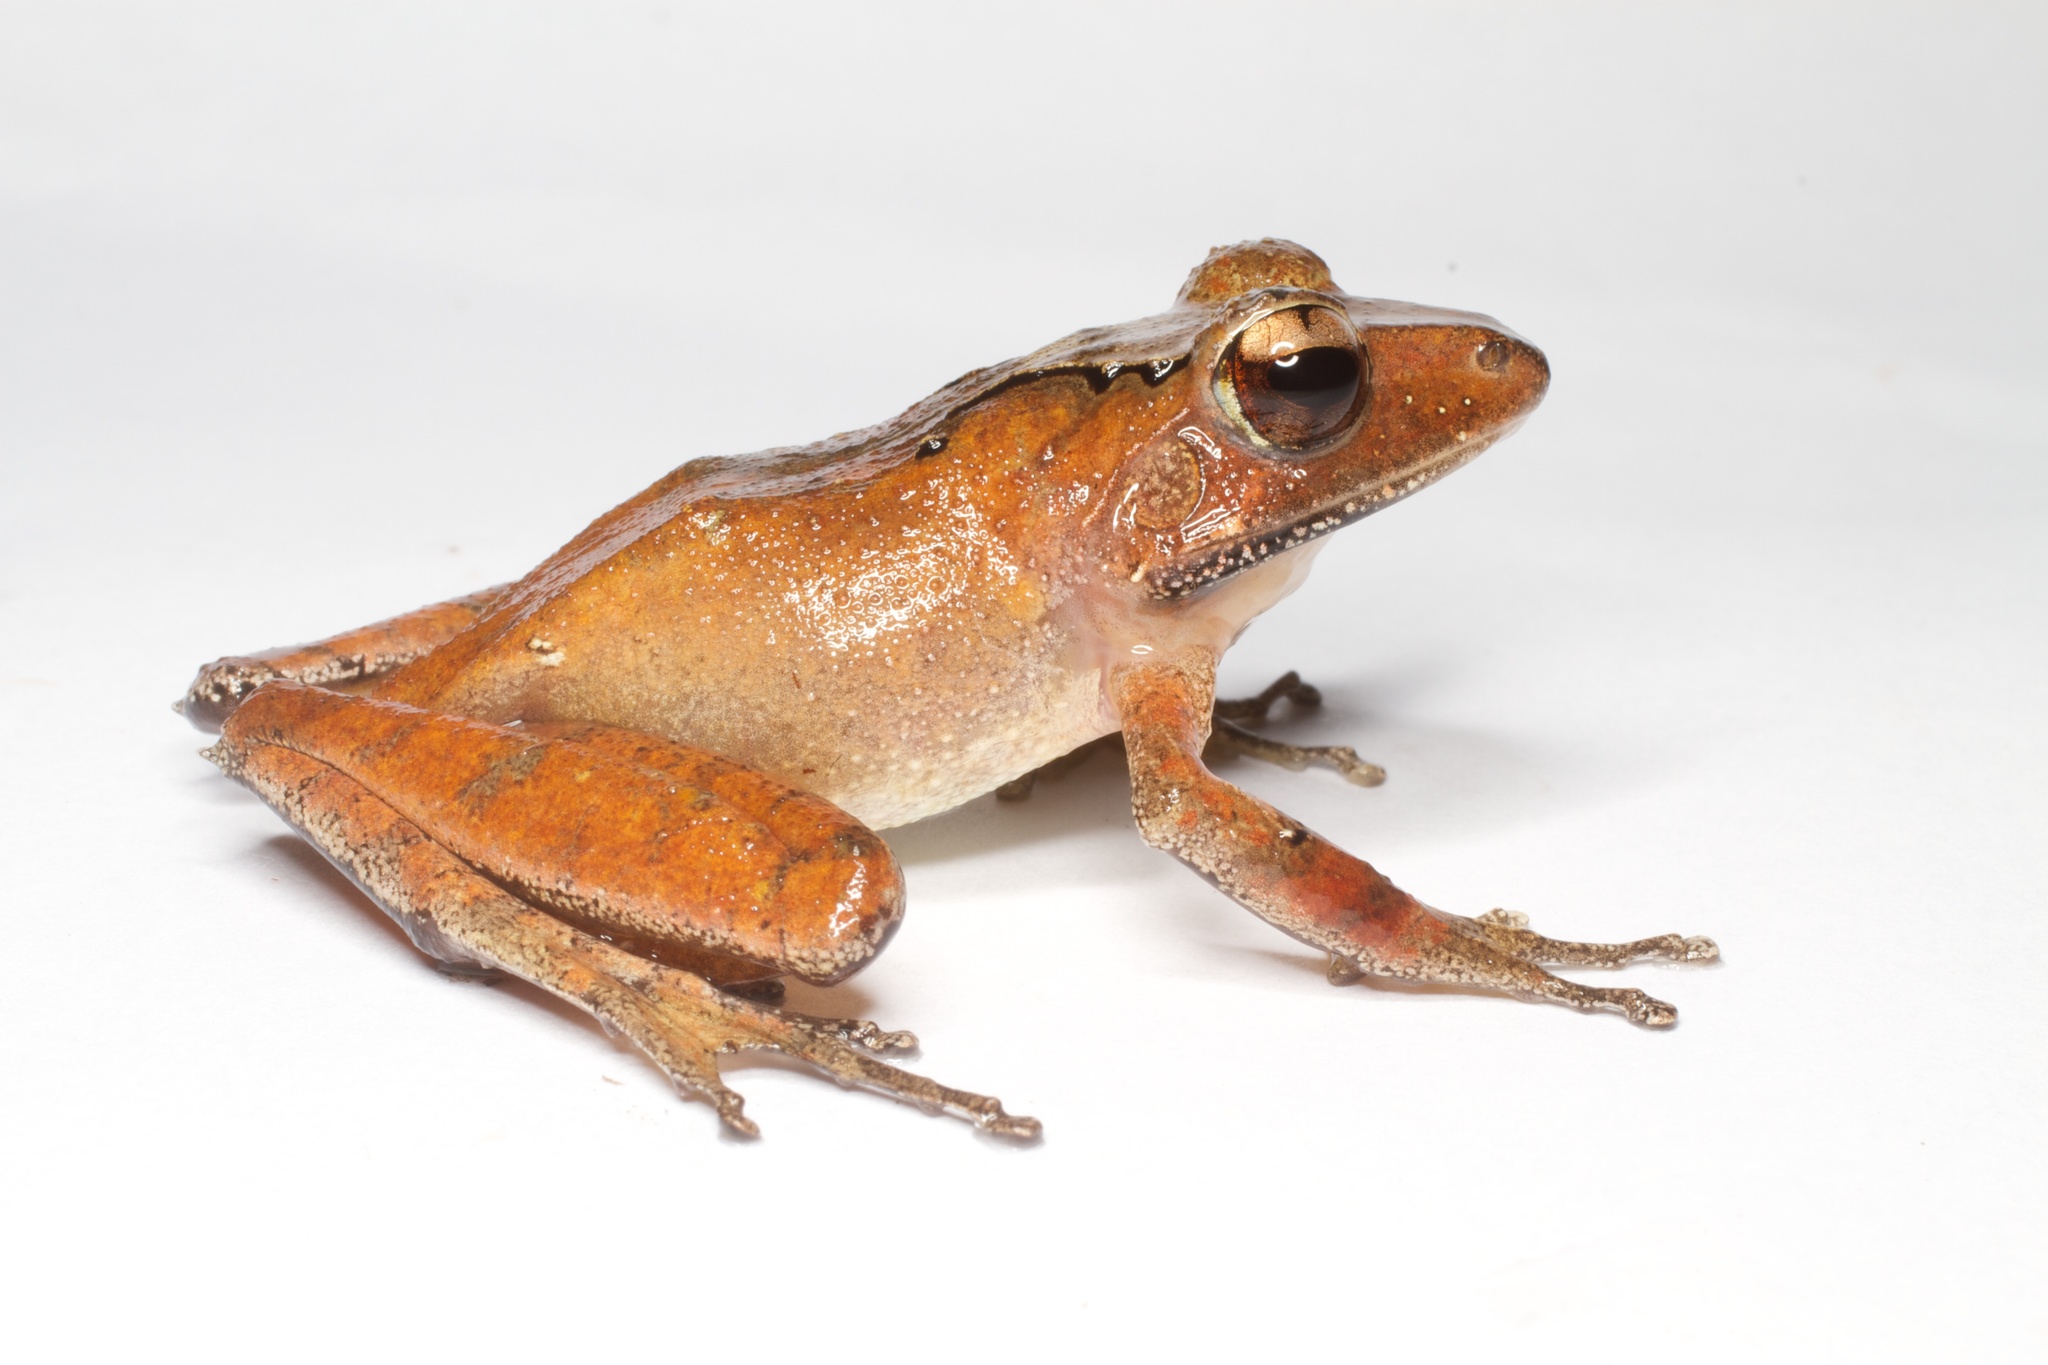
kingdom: Animalia
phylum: Chordata
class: Amphibia
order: Anura
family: Mantellidae
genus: Gephyromantis
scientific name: Gephyromantis plicifer
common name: Common madagascar frog
